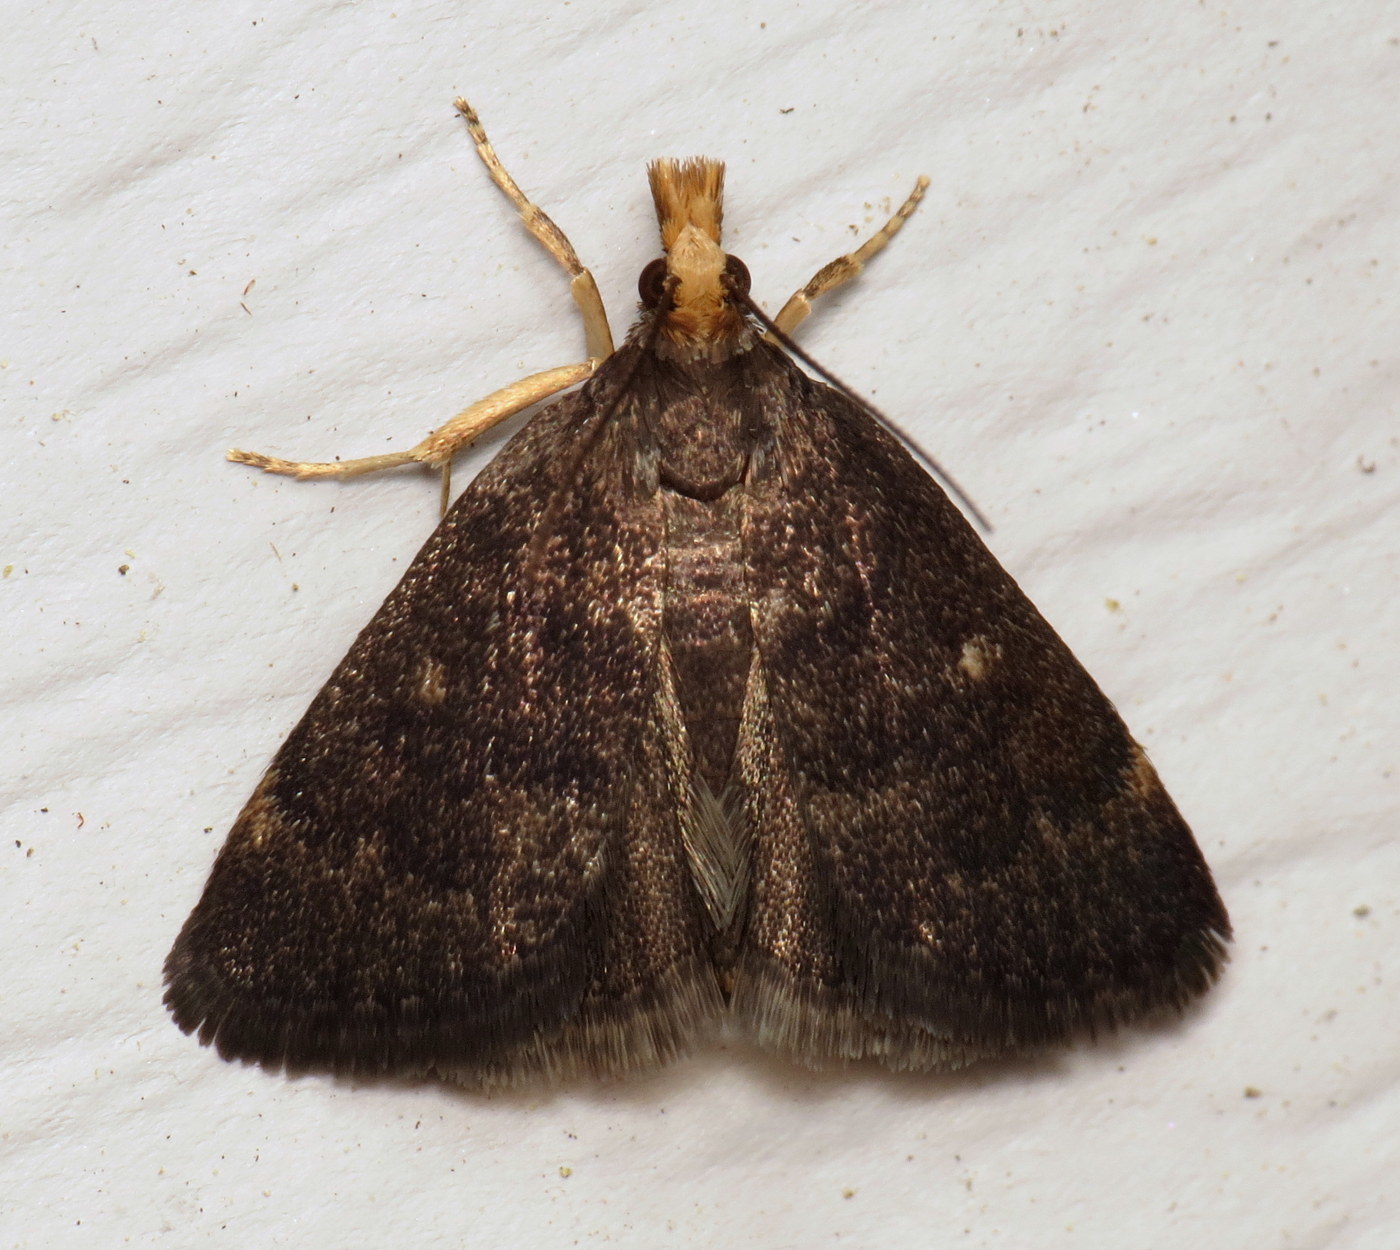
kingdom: Animalia
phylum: Arthropoda
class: Insecta
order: Lepidoptera
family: Crambidae
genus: Pyrausta
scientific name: Pyrausta merrickalis
